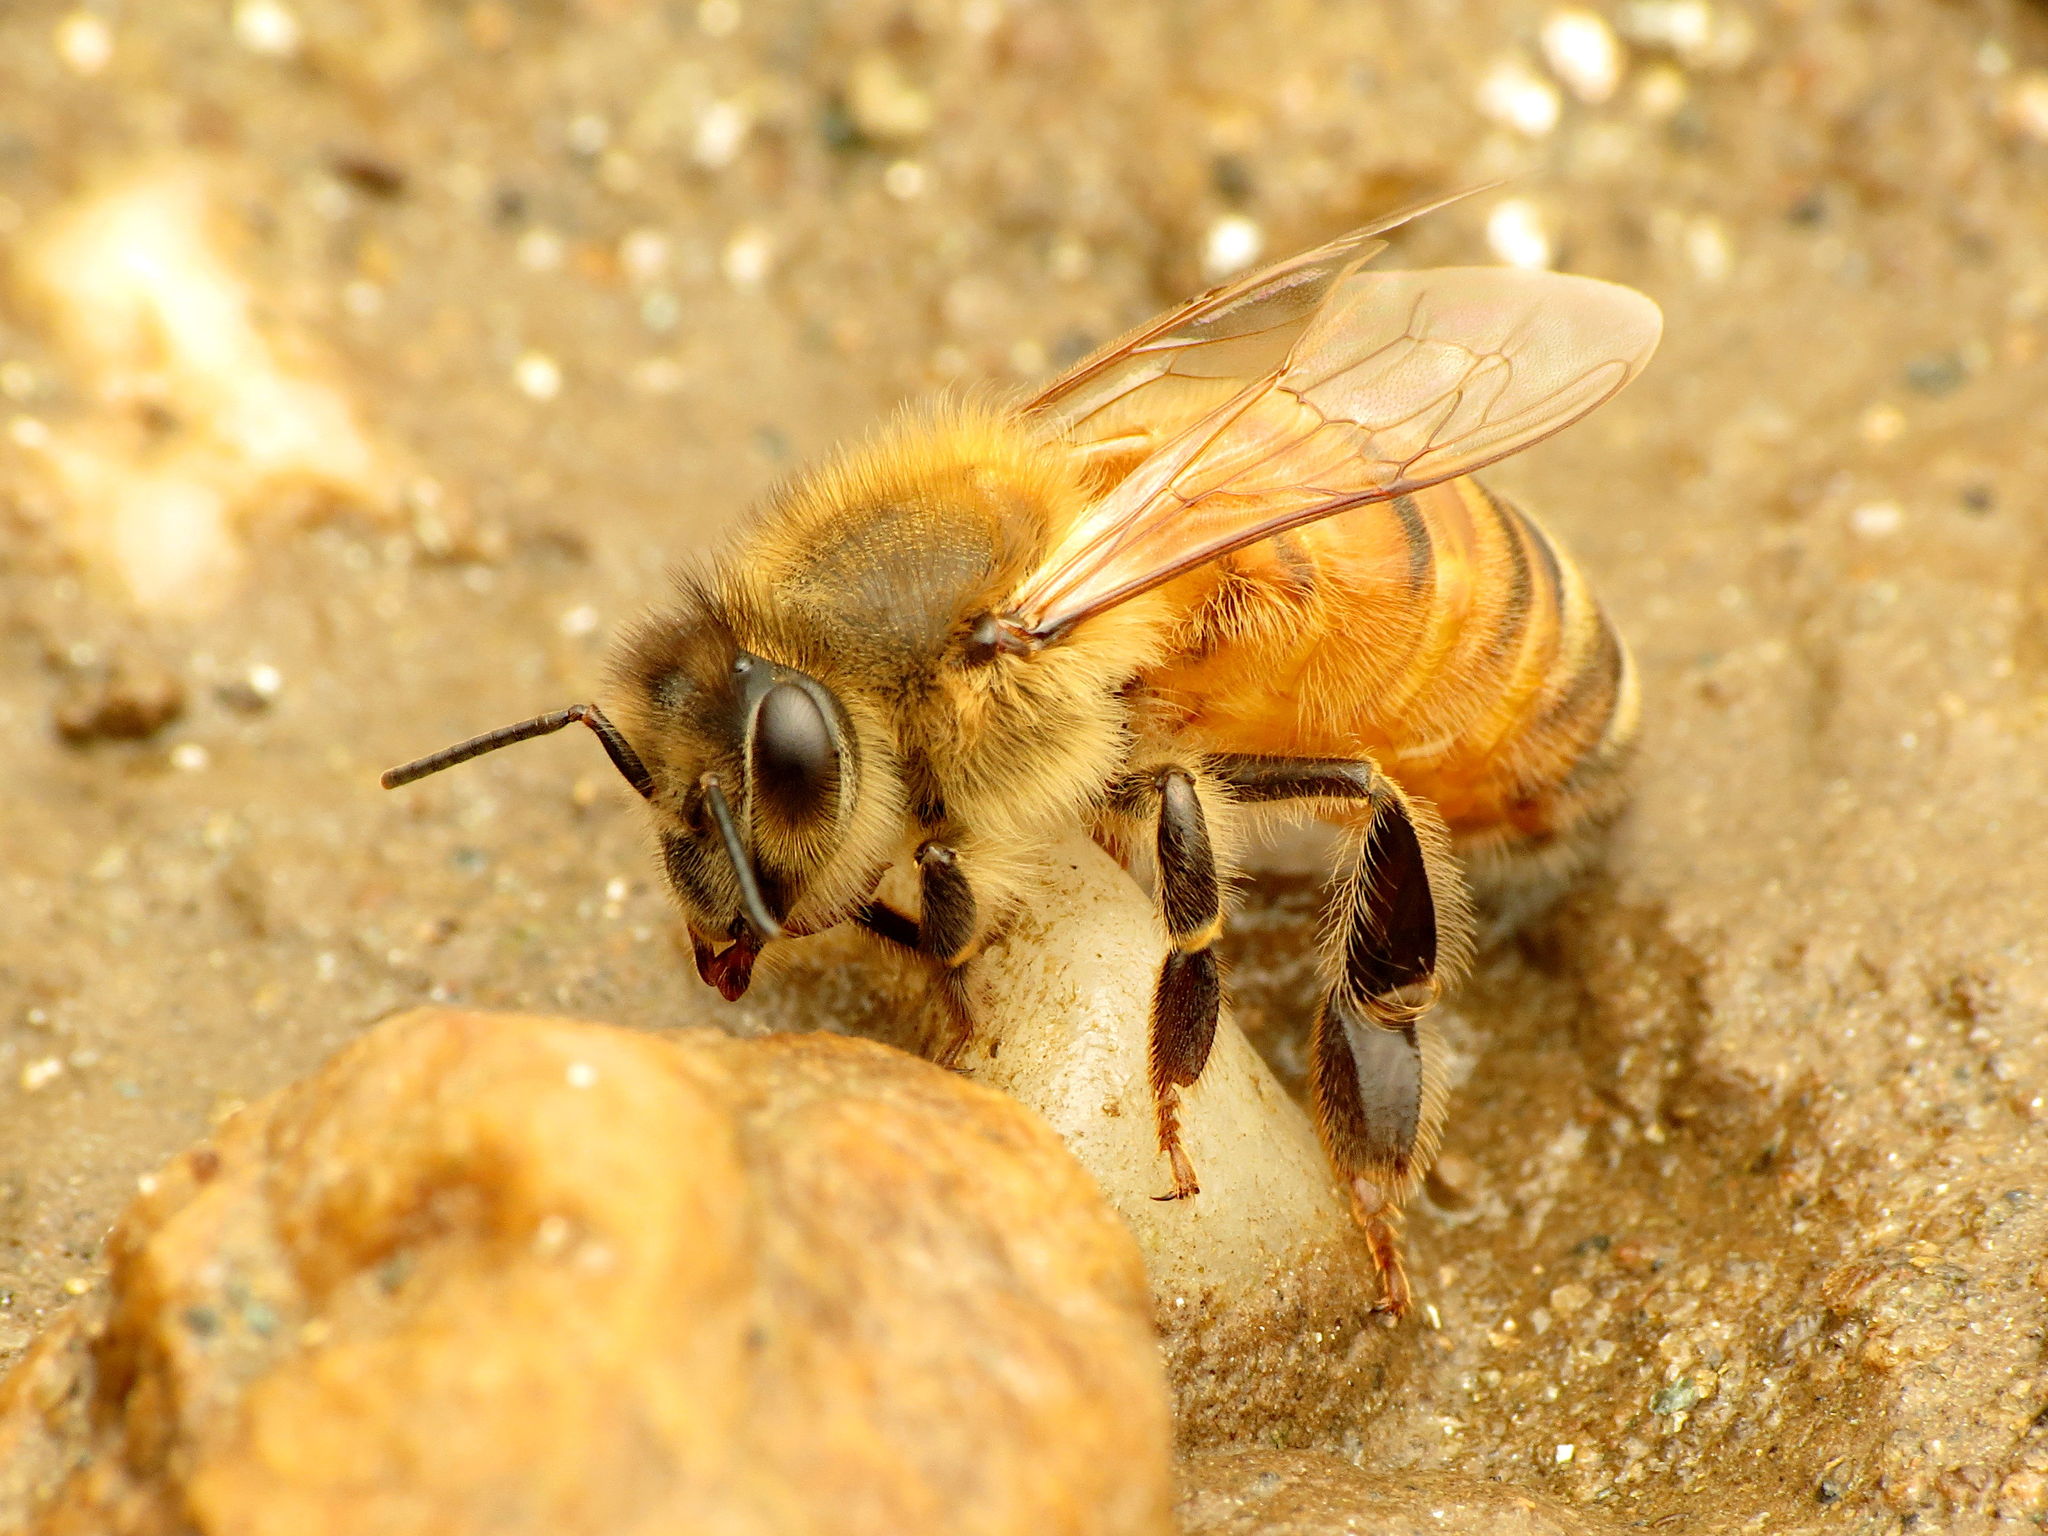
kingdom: Animalia
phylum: Arthropoda
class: Insecta
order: Hymenoptera
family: Apidae
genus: Apis
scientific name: Apis mellifera
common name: Honey bee
